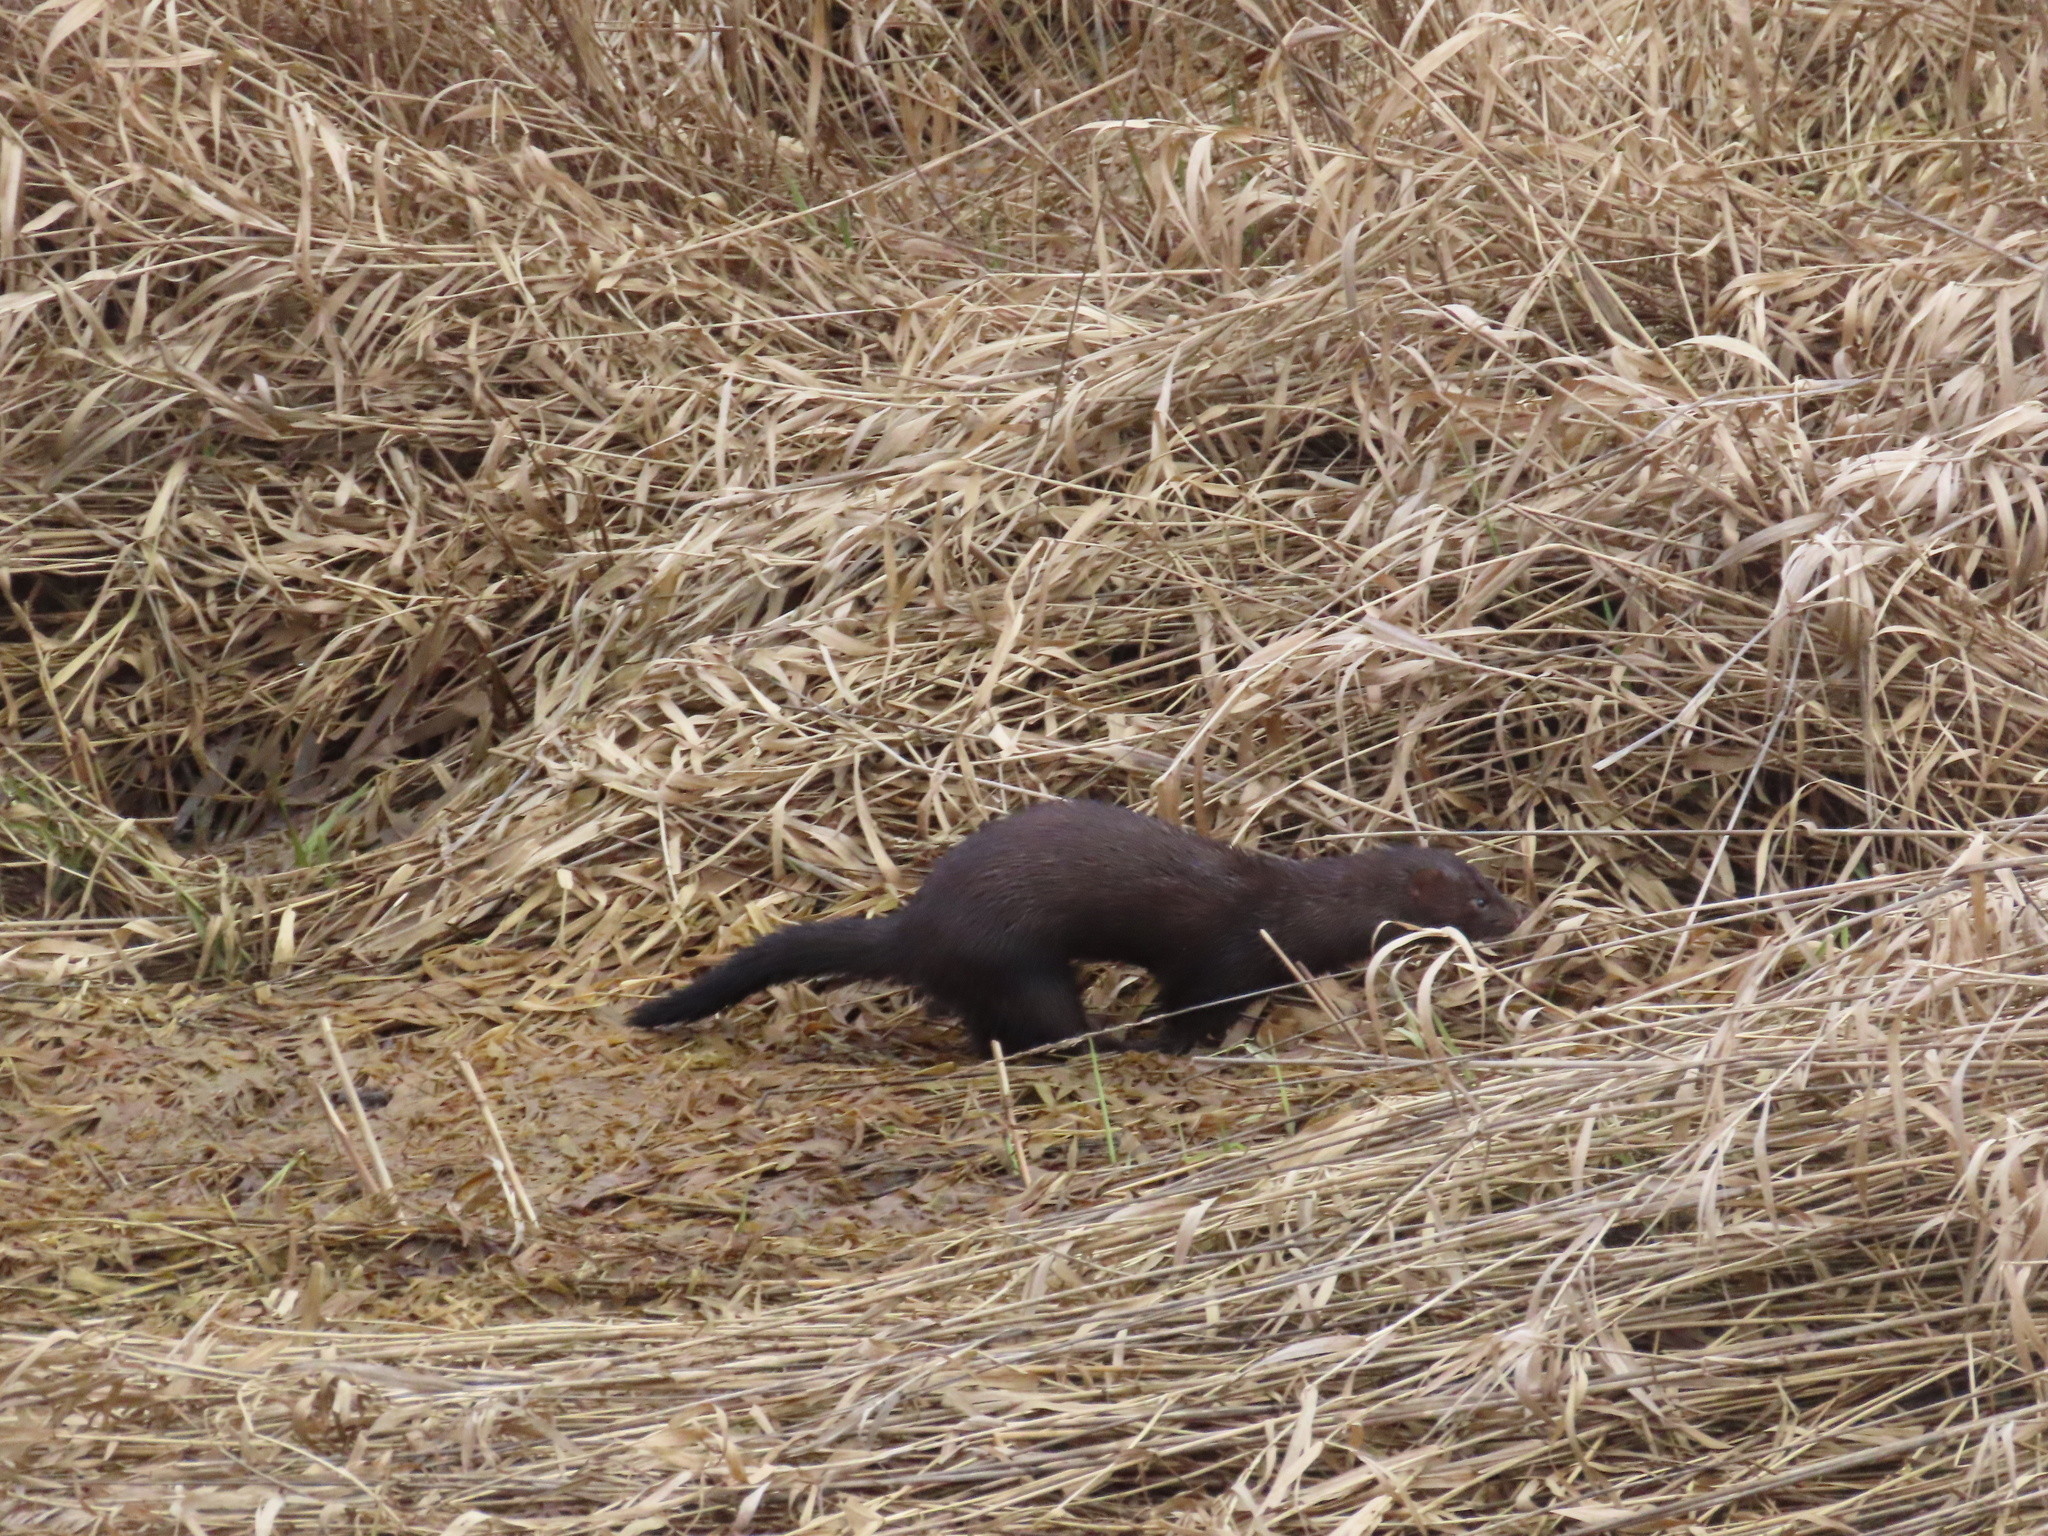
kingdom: Animalia
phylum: Chordata
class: Mammalia
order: Carnivora
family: Mustelidae
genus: Mustela
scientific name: Mustela
